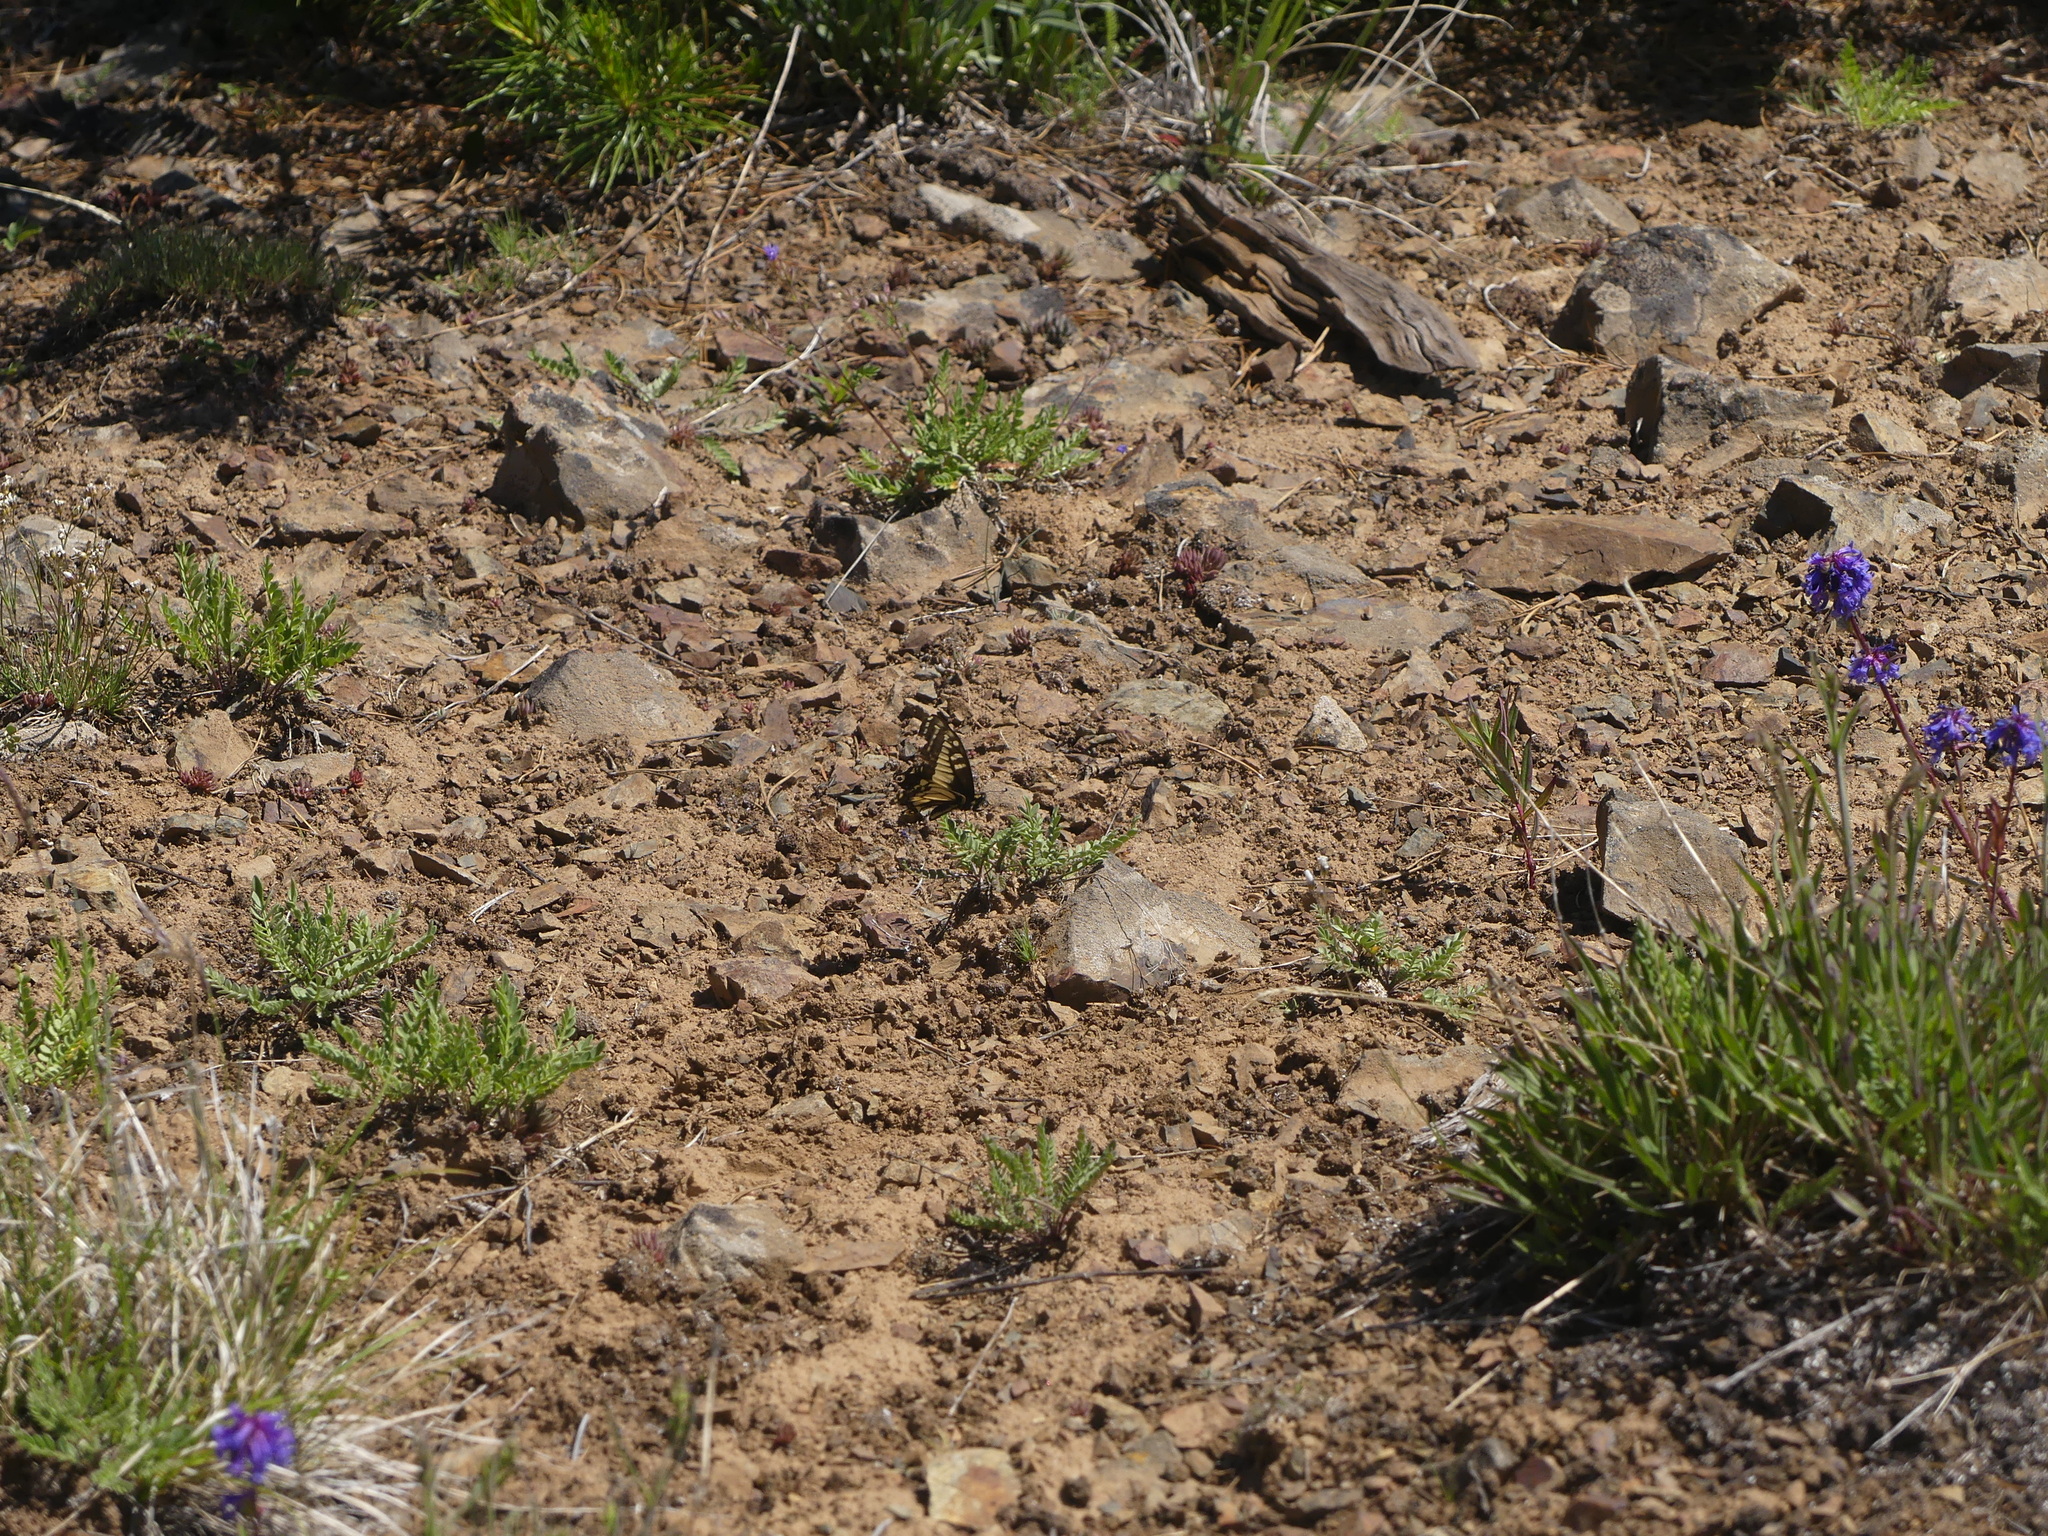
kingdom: Animalia
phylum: Arthropoda
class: Insecta
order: Lepidoptera
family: Papilionidae
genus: Papilio
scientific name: Papilio zelicaon
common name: Anise swallowtail
